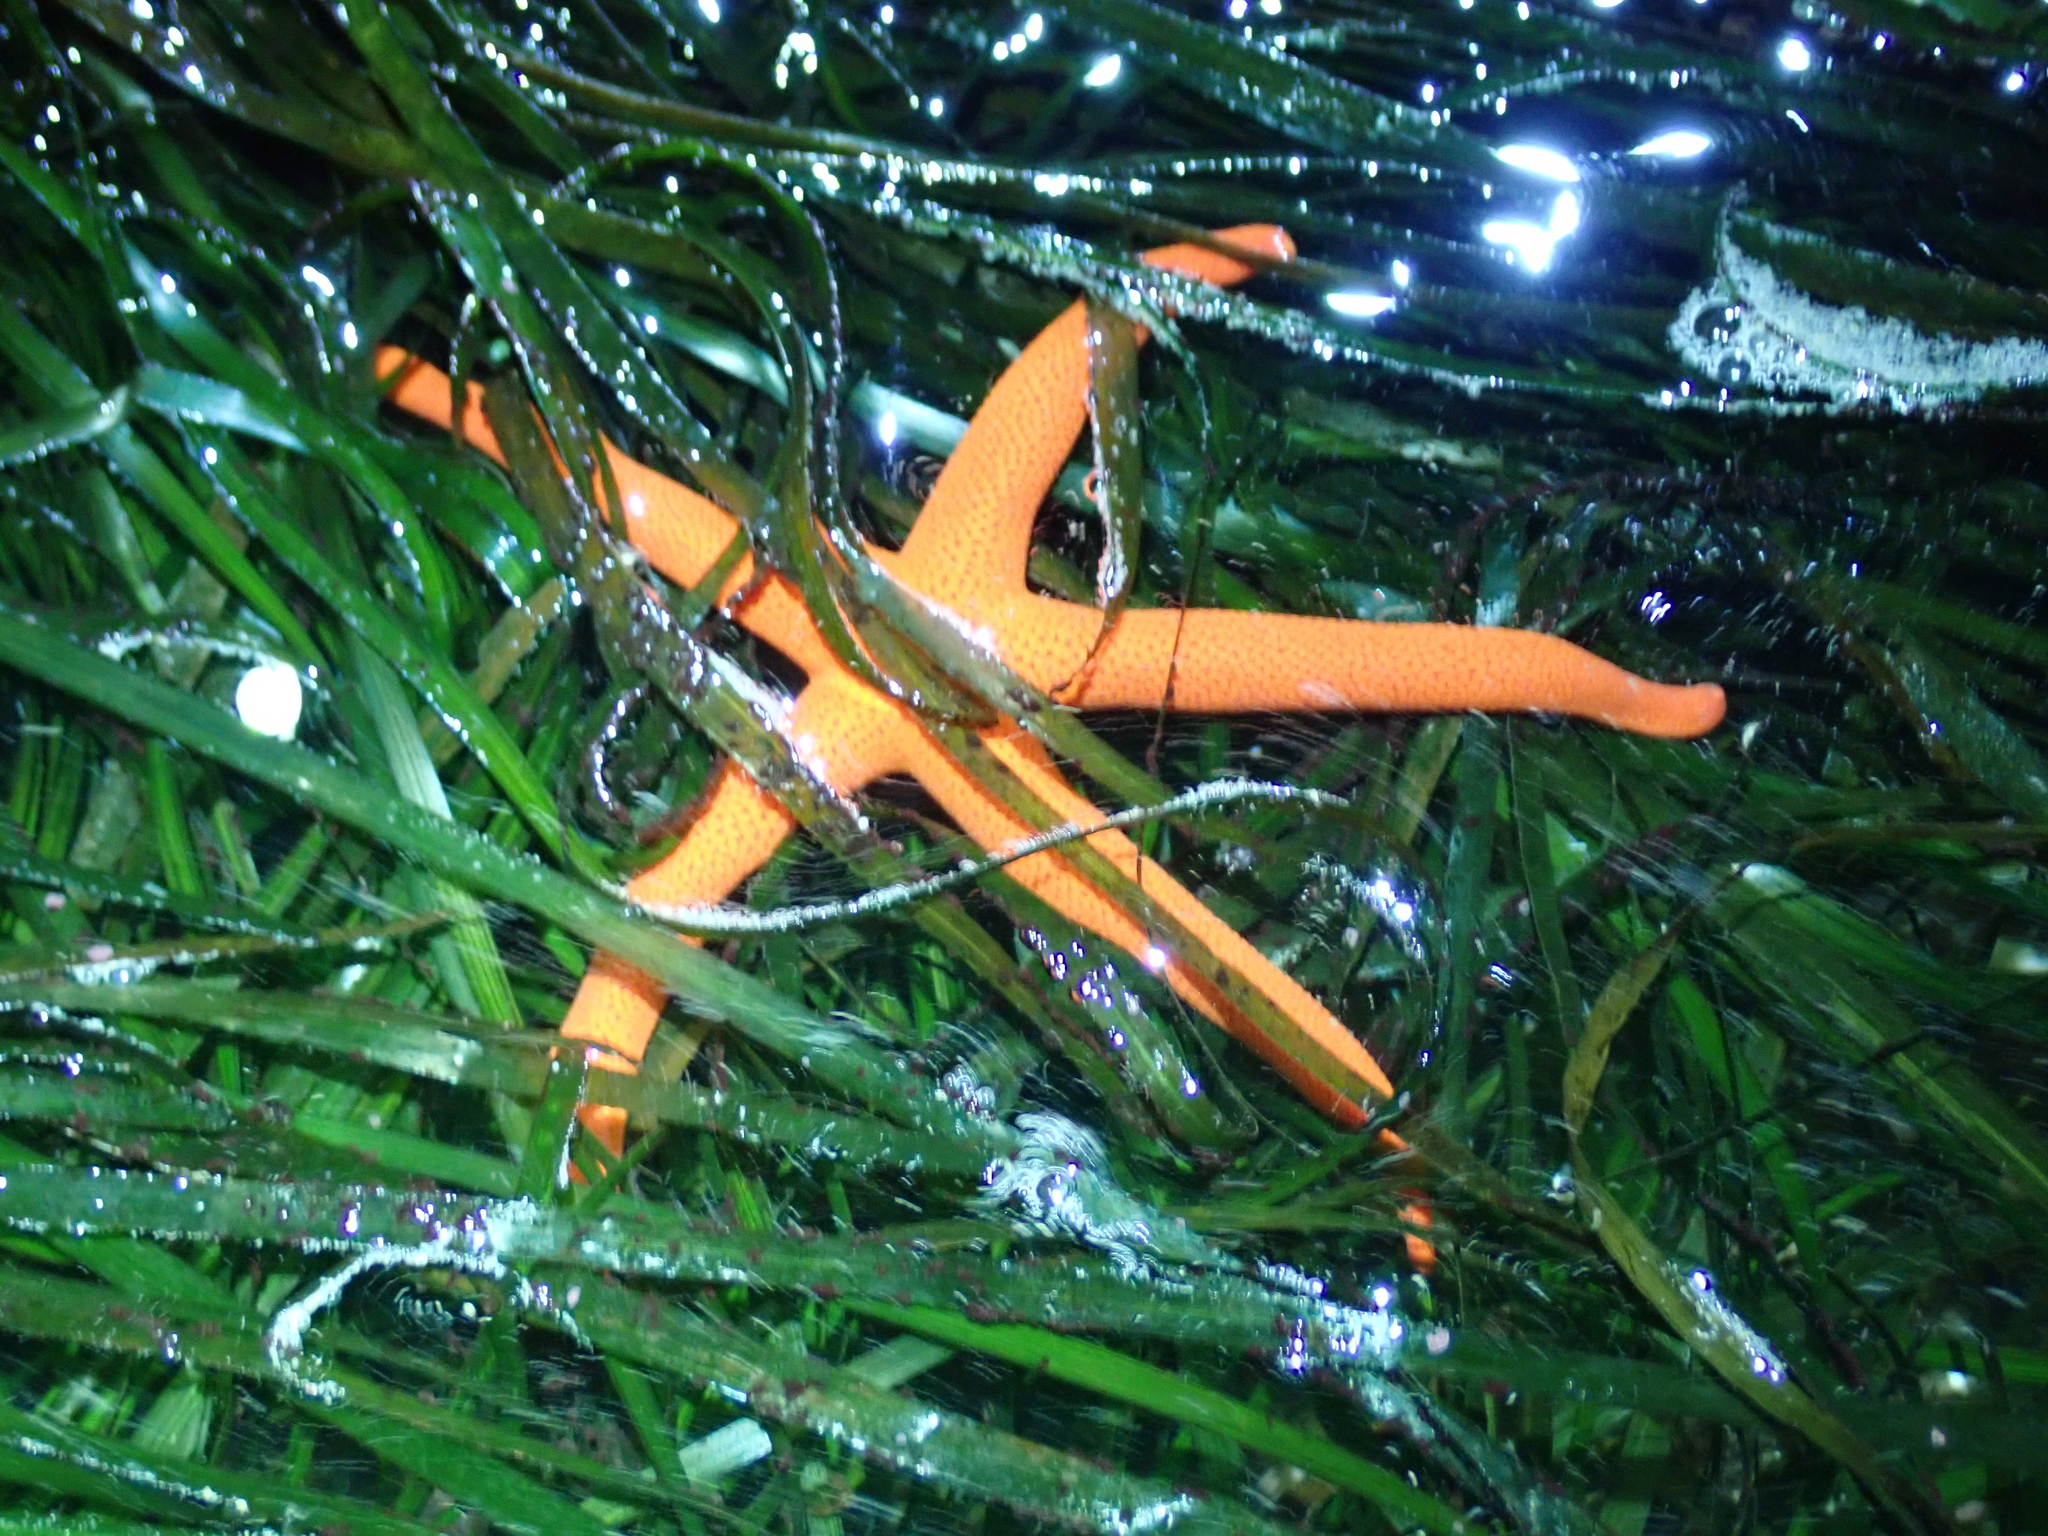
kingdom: Animalia
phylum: Echinodermata
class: Asteroidea
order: Spinulosida
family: Echinasteridae
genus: Henricia
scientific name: Henricia leviuscula
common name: Pacific blood star
